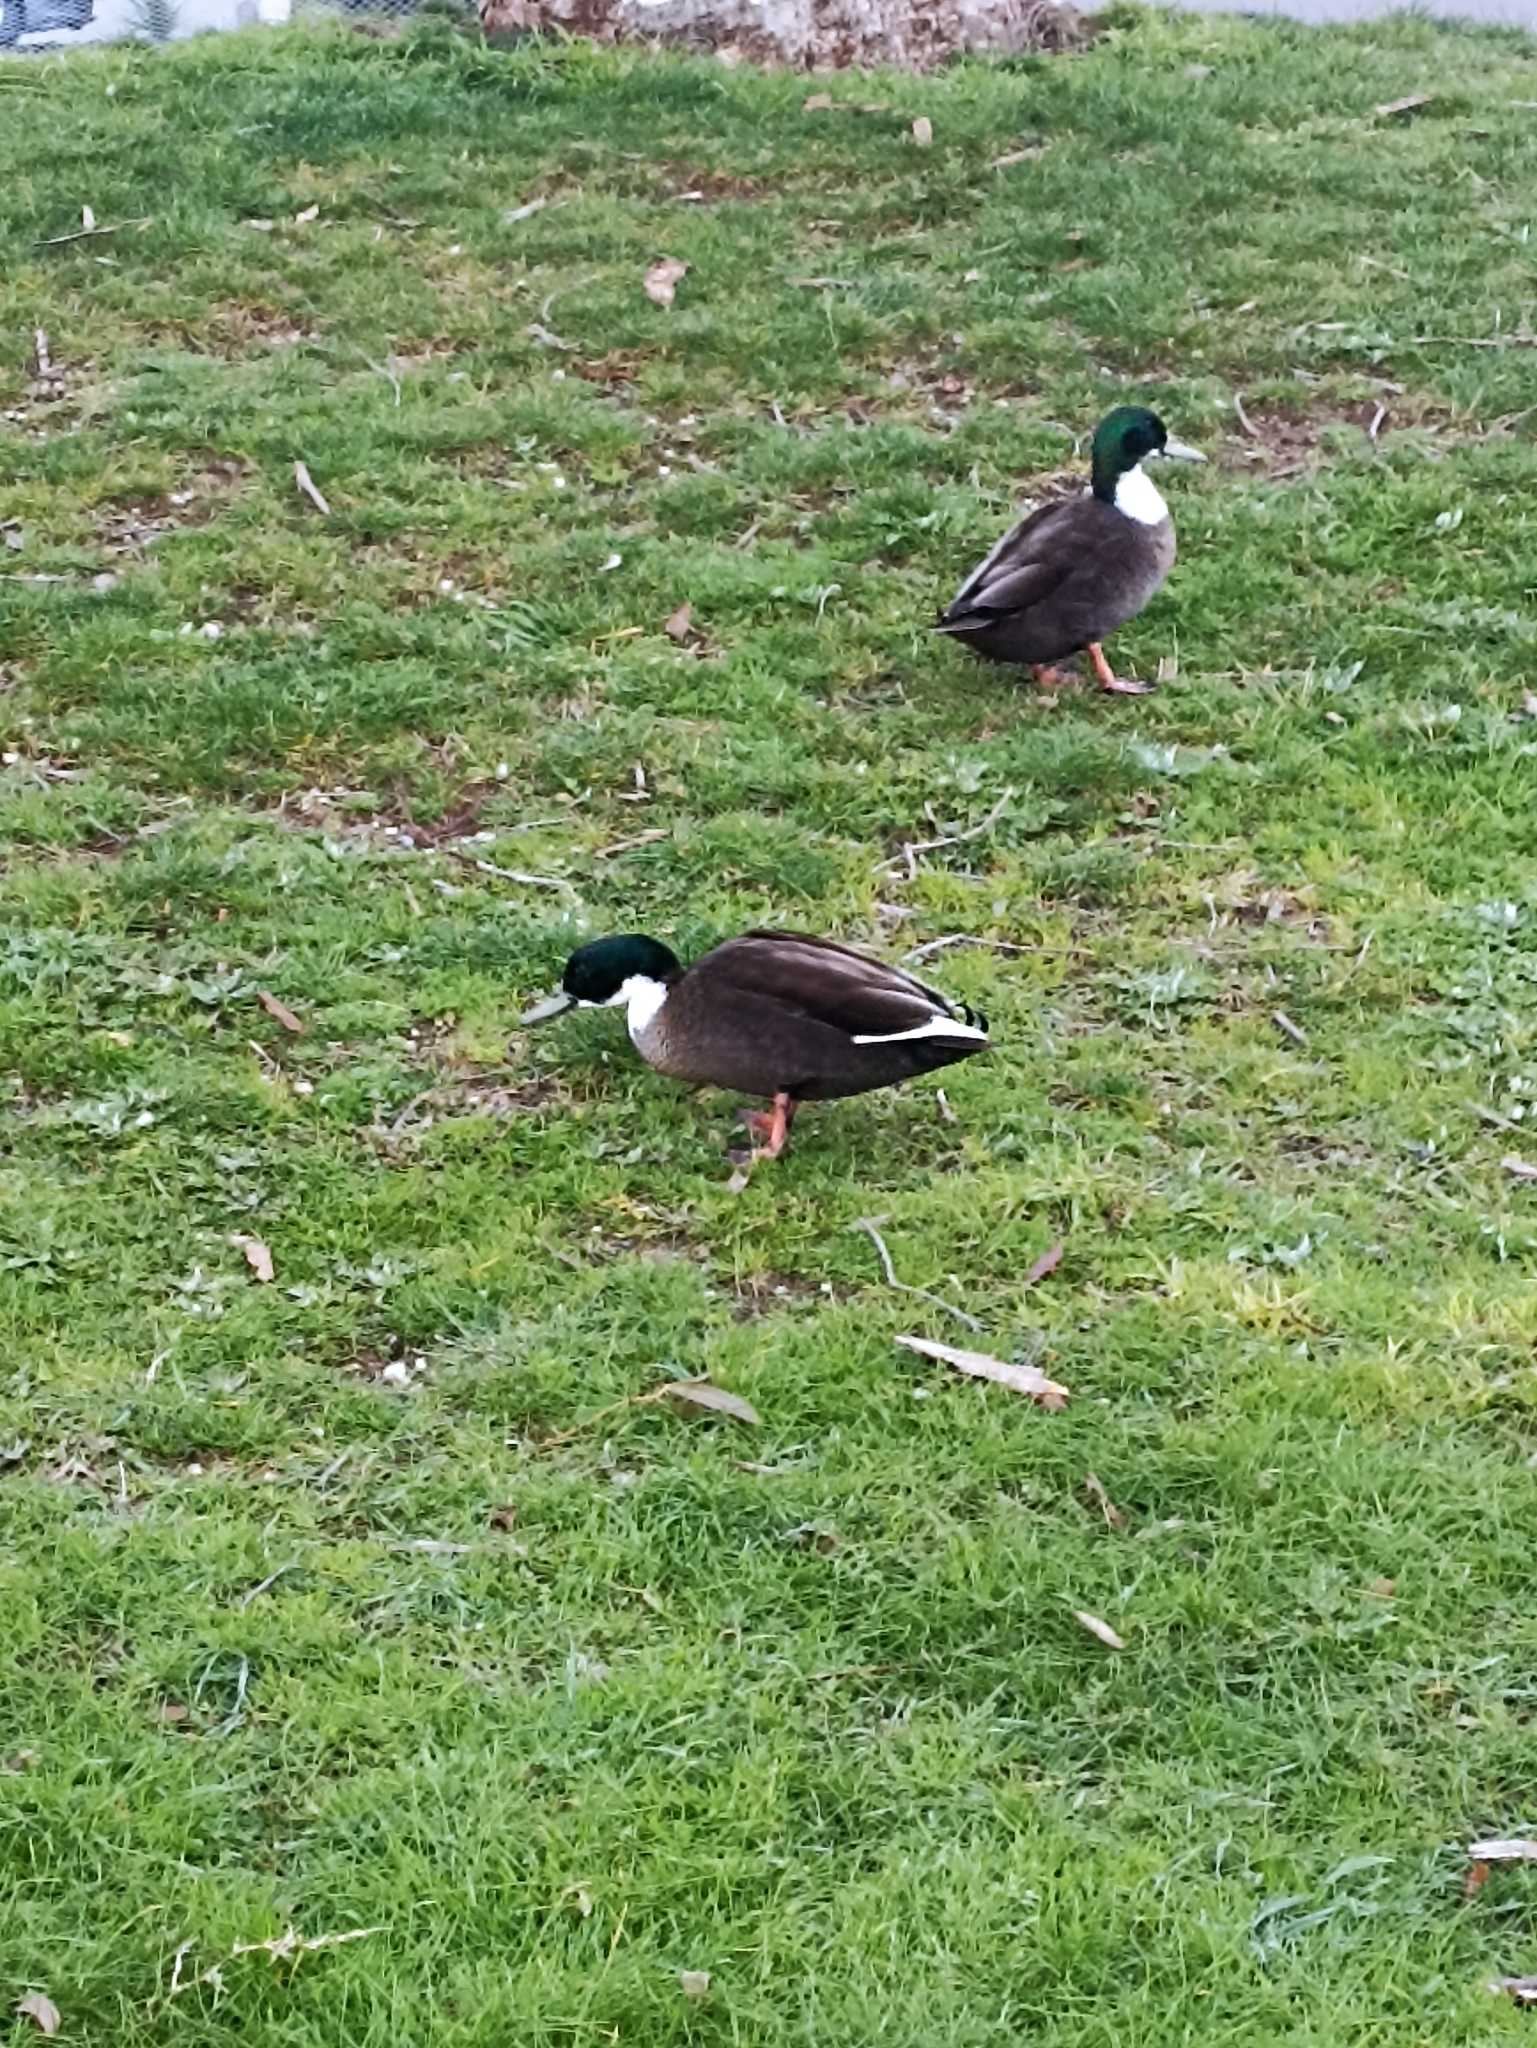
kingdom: Animalia
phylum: Chordata
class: Aves
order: Anseriformes
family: Anatidae
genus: Anas
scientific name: Anas platyrhynchos
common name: Mallard
